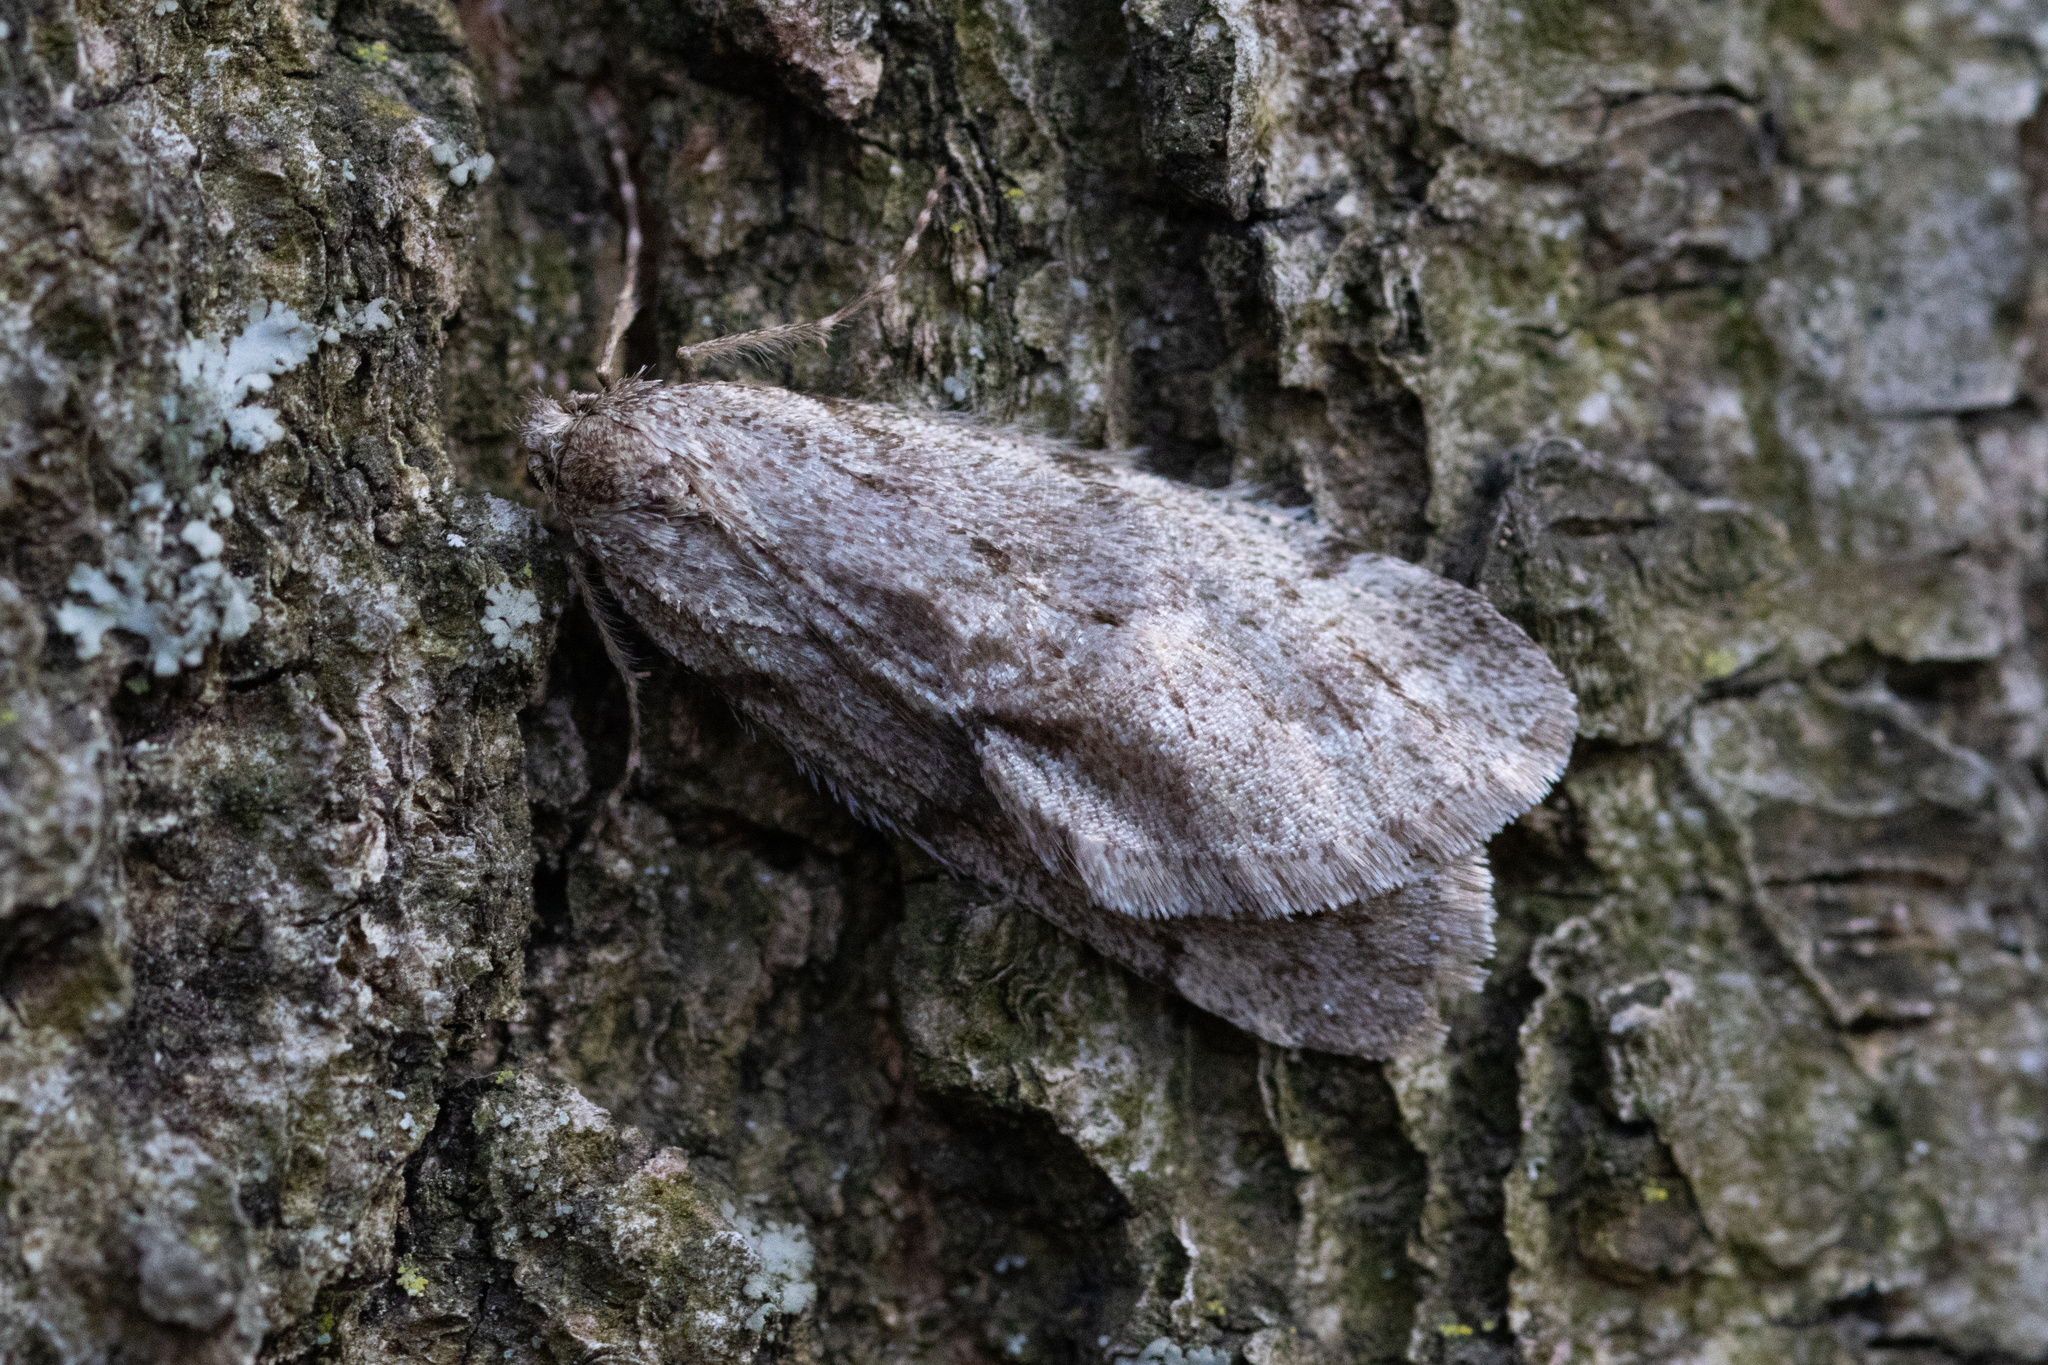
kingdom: Animalia
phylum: Arthropoda
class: Insecta
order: Lepidoptera
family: Geometridae
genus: Paleacrita
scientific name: Paleacrita vernata
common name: Spring cankerworm
